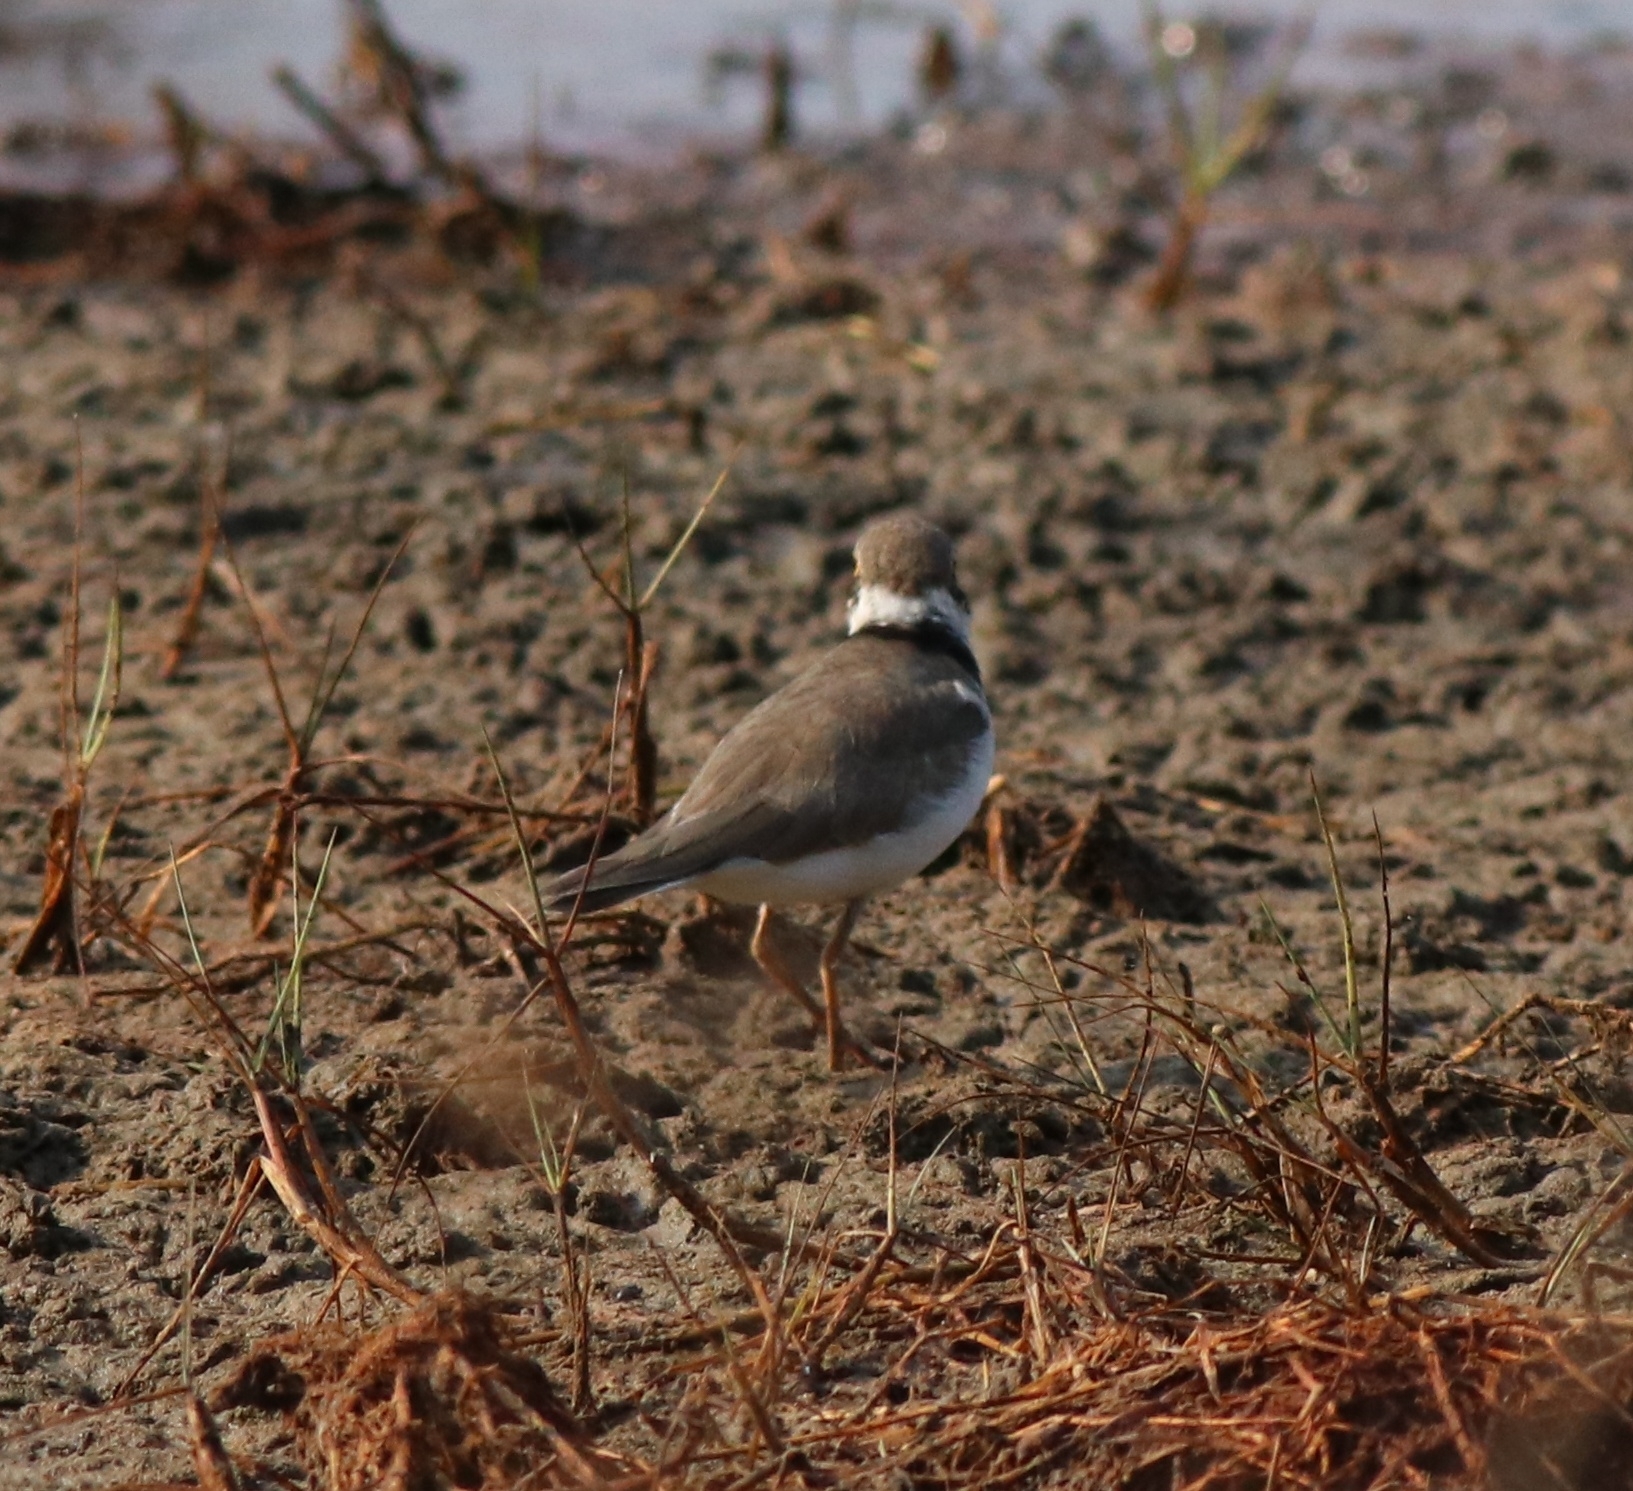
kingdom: Animalia
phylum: Chordata
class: Aves
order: Charadriiformes
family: Charadriidae
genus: Charadrius
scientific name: Charadrius dubius
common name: Little ringed plover
